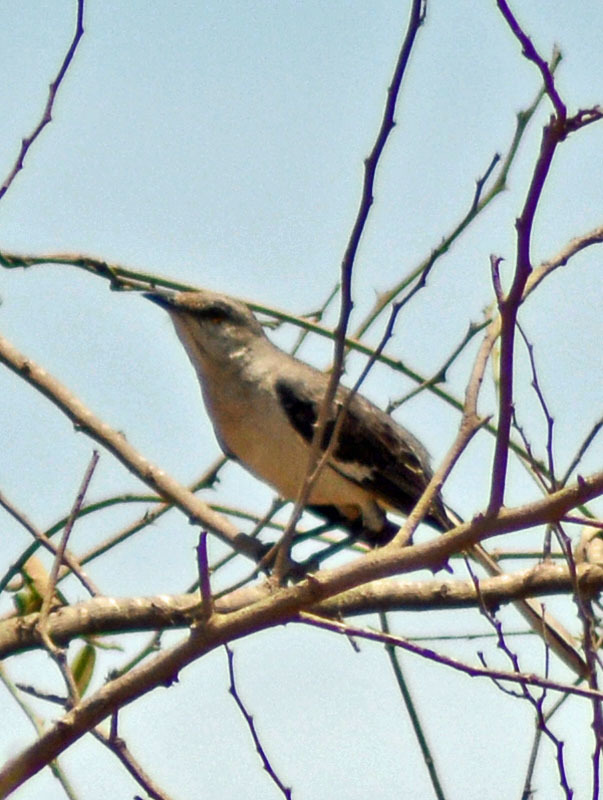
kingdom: Animalia
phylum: Chordata
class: Aves
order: Passeriformes
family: Mimidae
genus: Mimus
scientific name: Mimus polyglottos
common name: Northern mockingbird
